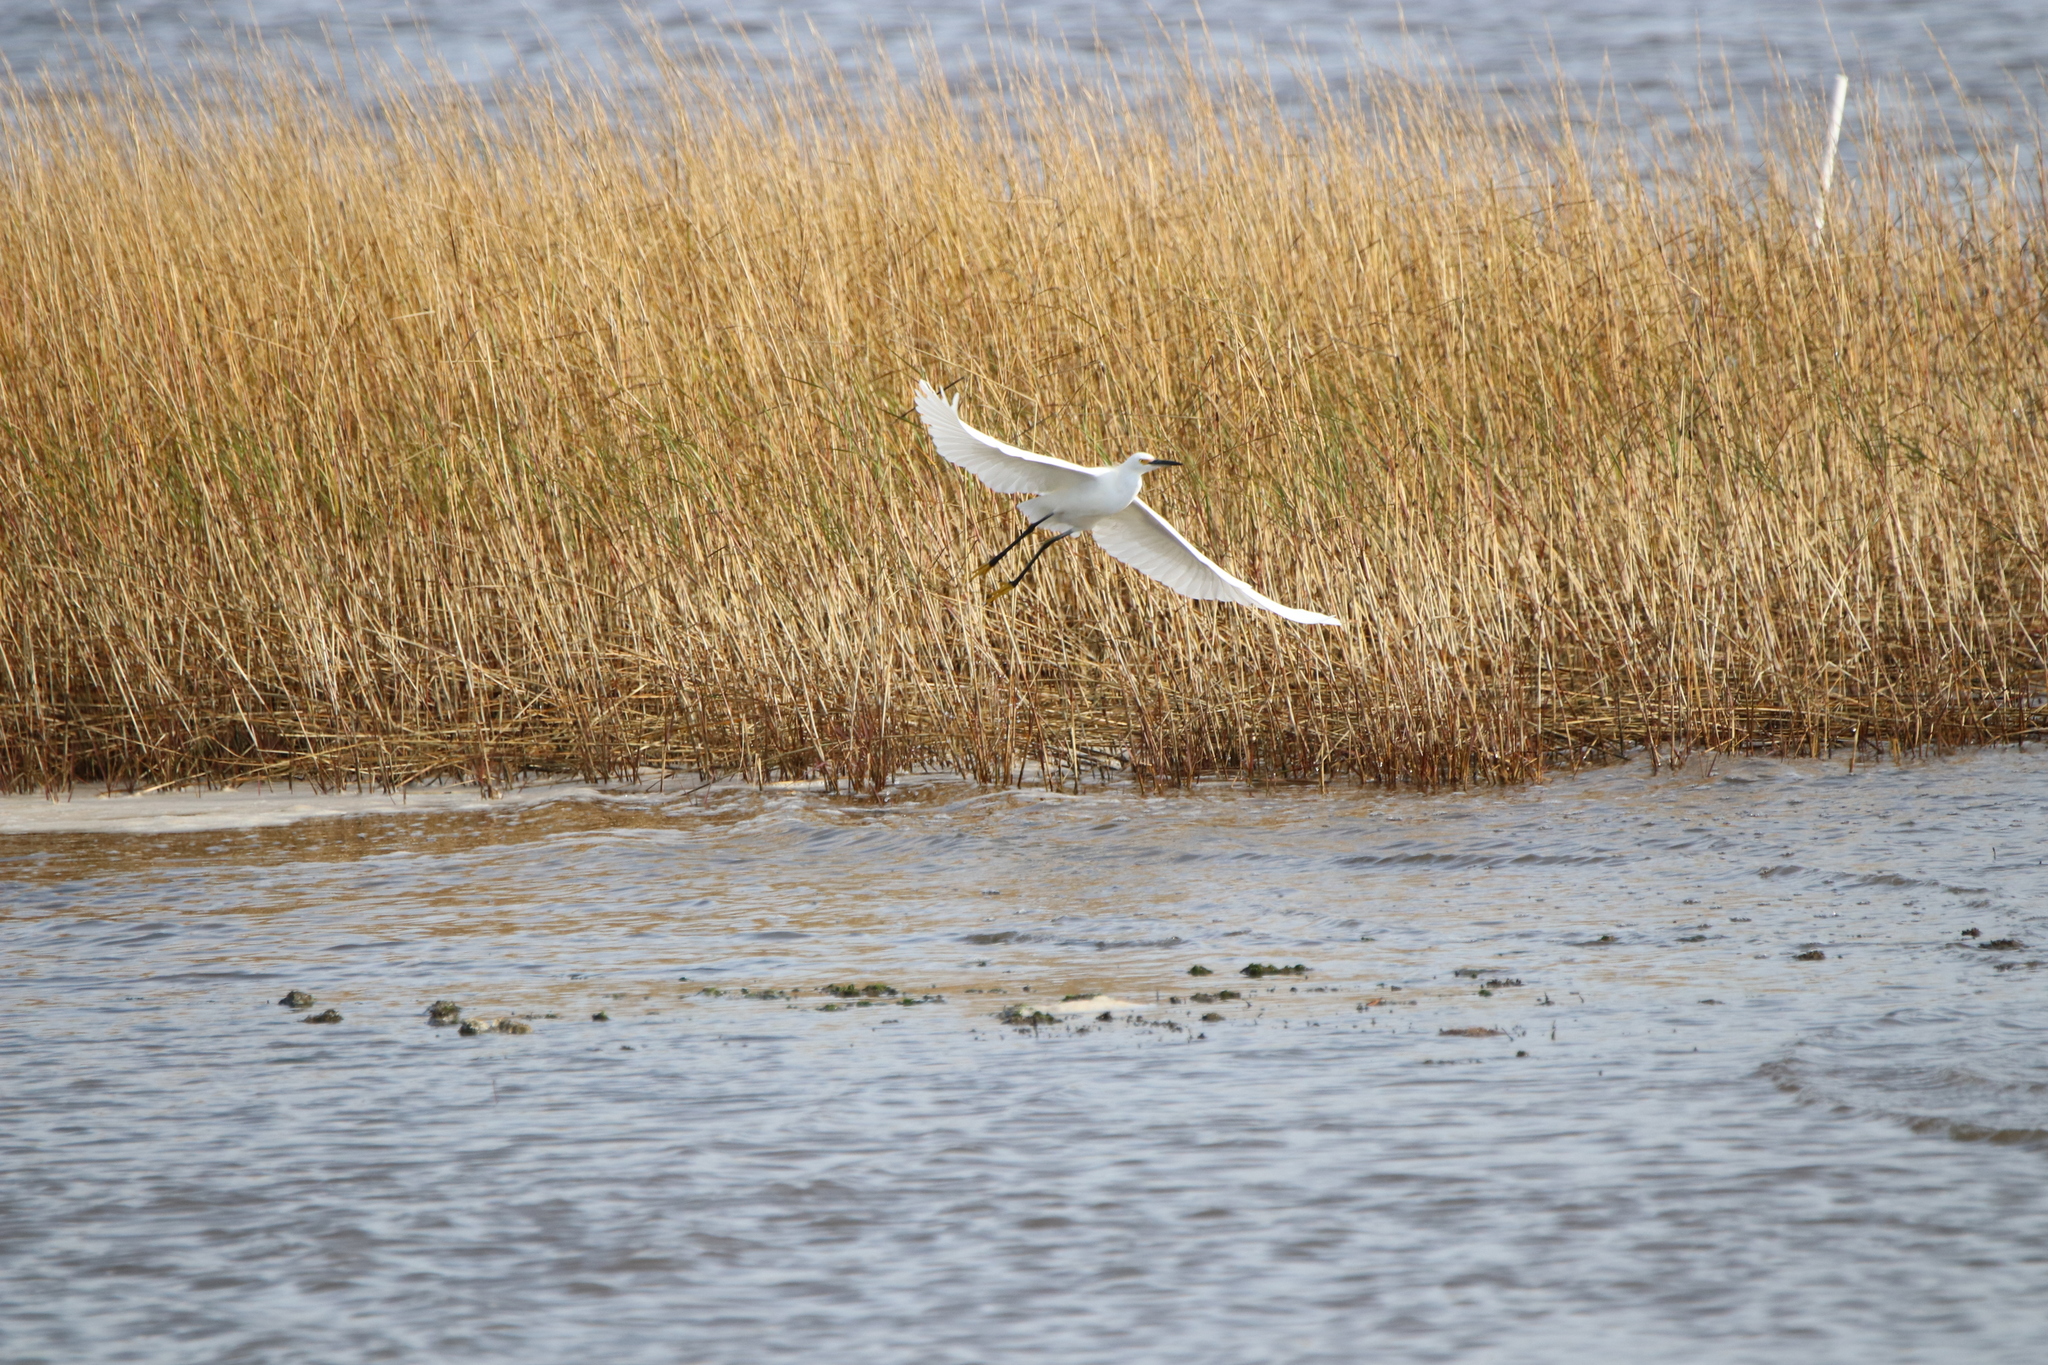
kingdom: Animalia
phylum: Chordata
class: Aves
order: Pelecaniformes
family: Ardeidae
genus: Egretta
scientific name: Egretta thula
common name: Snowy egret
